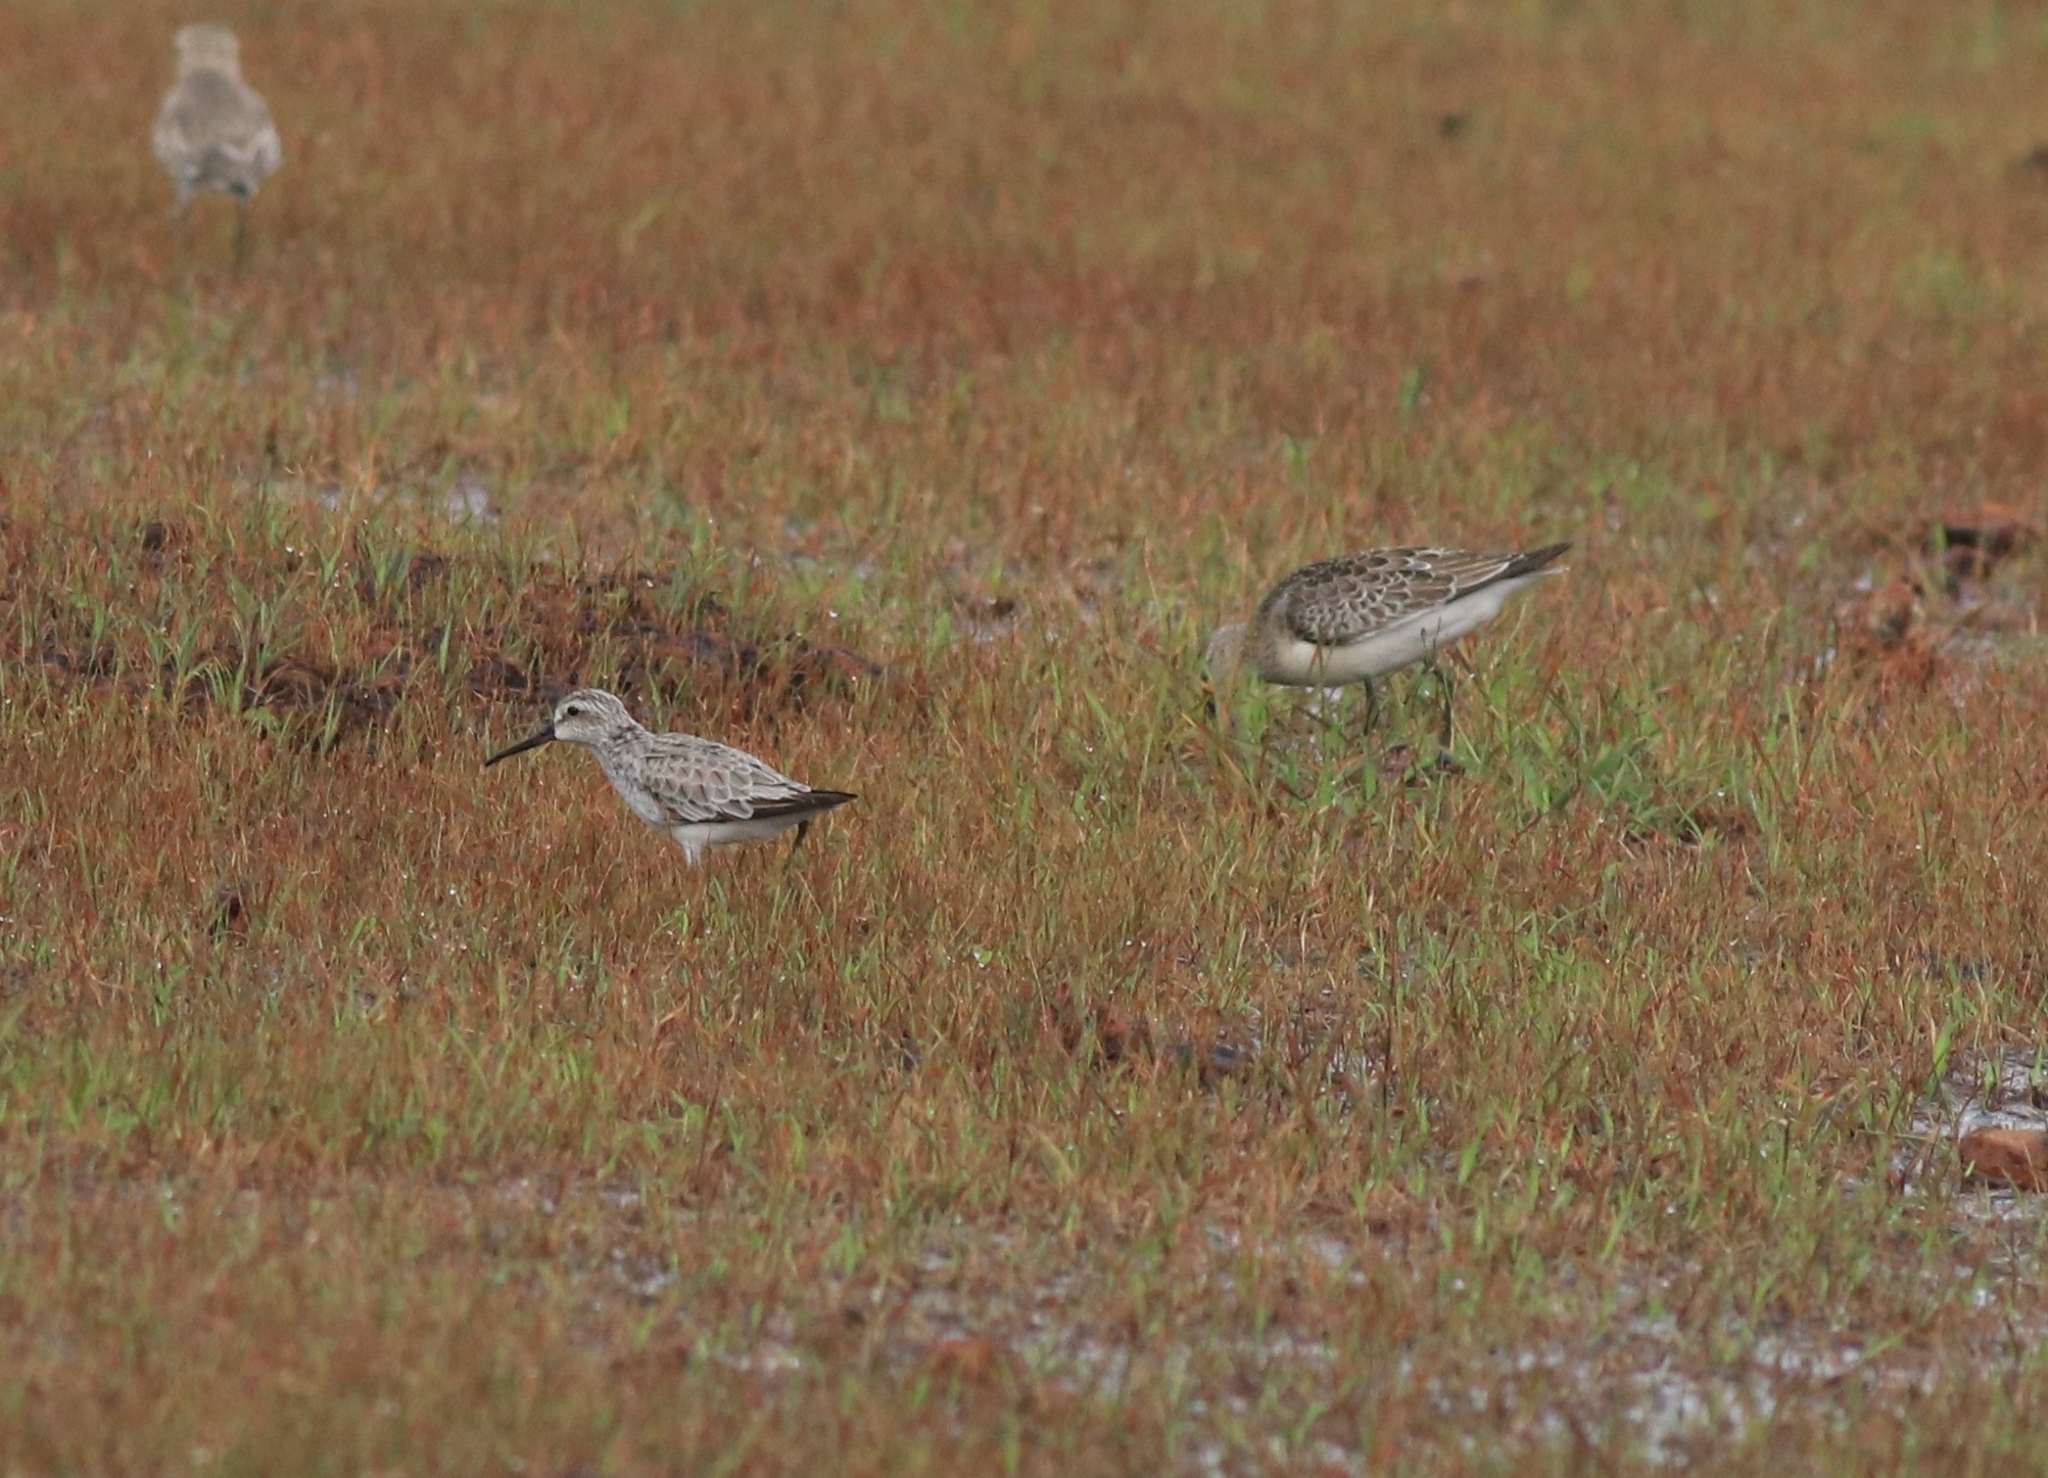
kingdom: Animalia
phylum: Chordata
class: Aves
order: Charadriiformes
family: Scolopacidae
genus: Calidris
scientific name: Calidris falcinellus
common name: Broad-billed sandpiper
